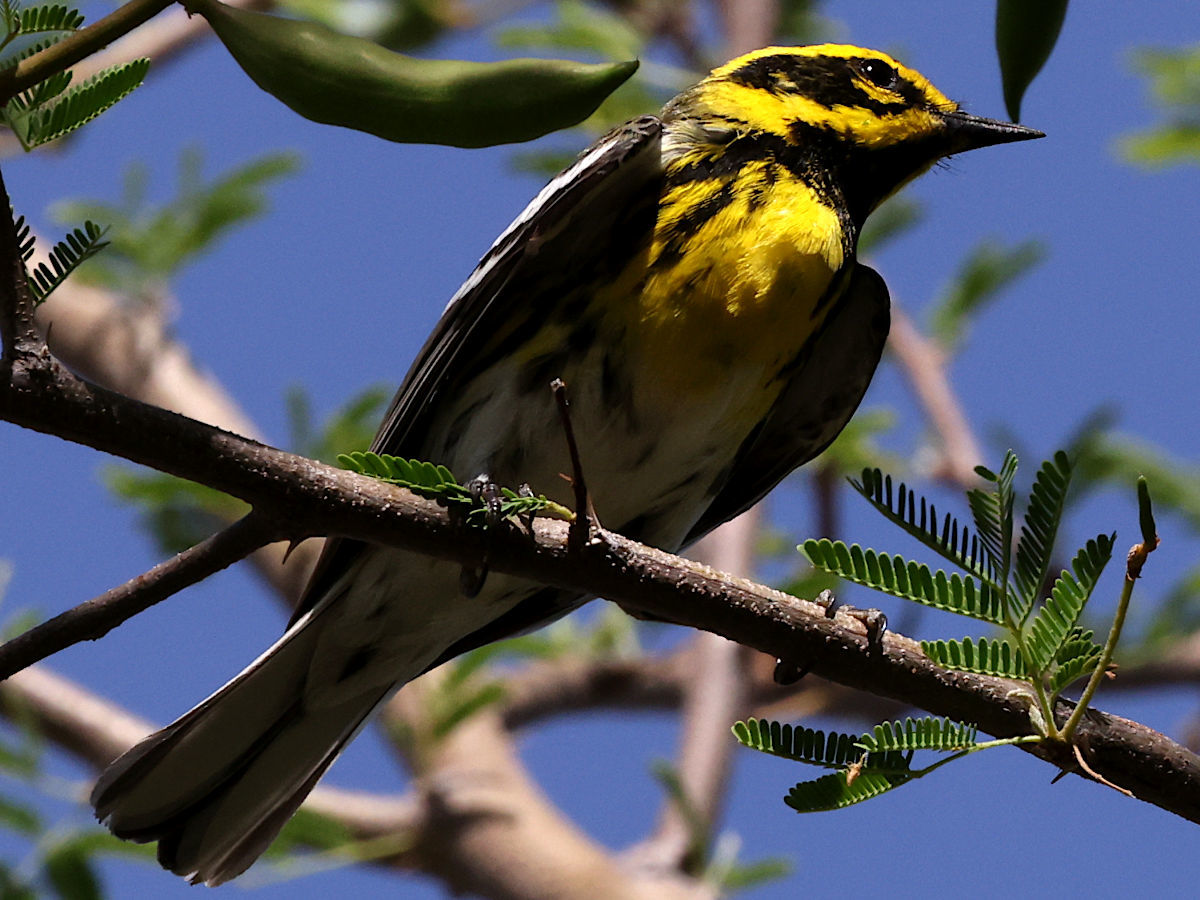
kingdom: Animalia
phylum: Chordata
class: Aves
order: Passeriformes
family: Parulidae
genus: Setophaga
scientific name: Setophaga townsendi
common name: Townsend's warbler
